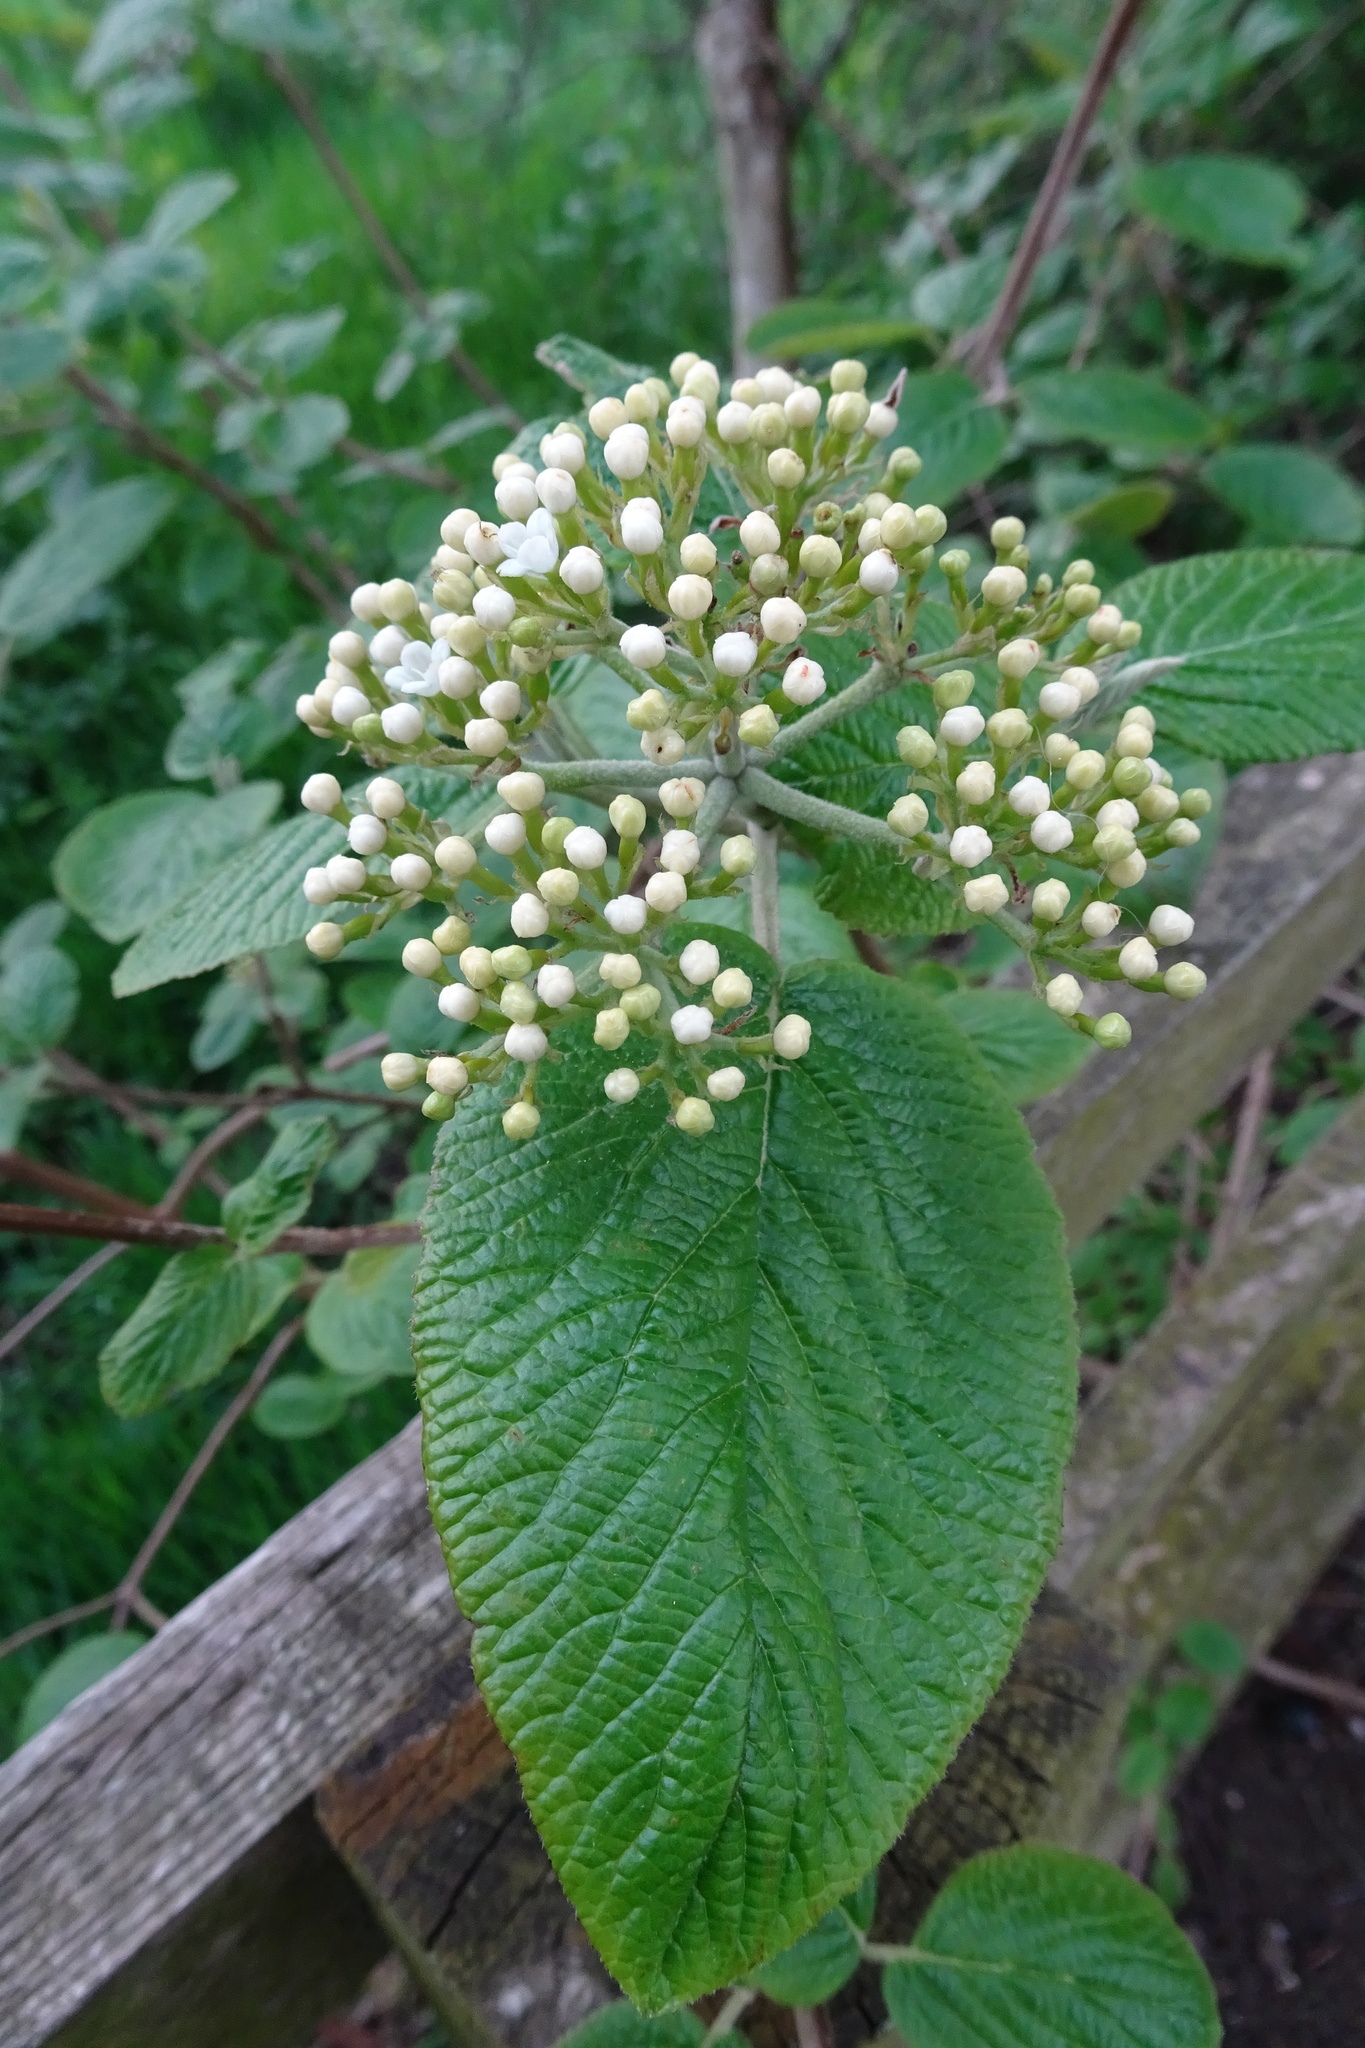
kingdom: Plantae
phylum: Tracheophyta
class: Magnoliopsida
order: Dipsacales
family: Viburnaceae
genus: Viburnum
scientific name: Viburnum lantana
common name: Wayfaring tree
